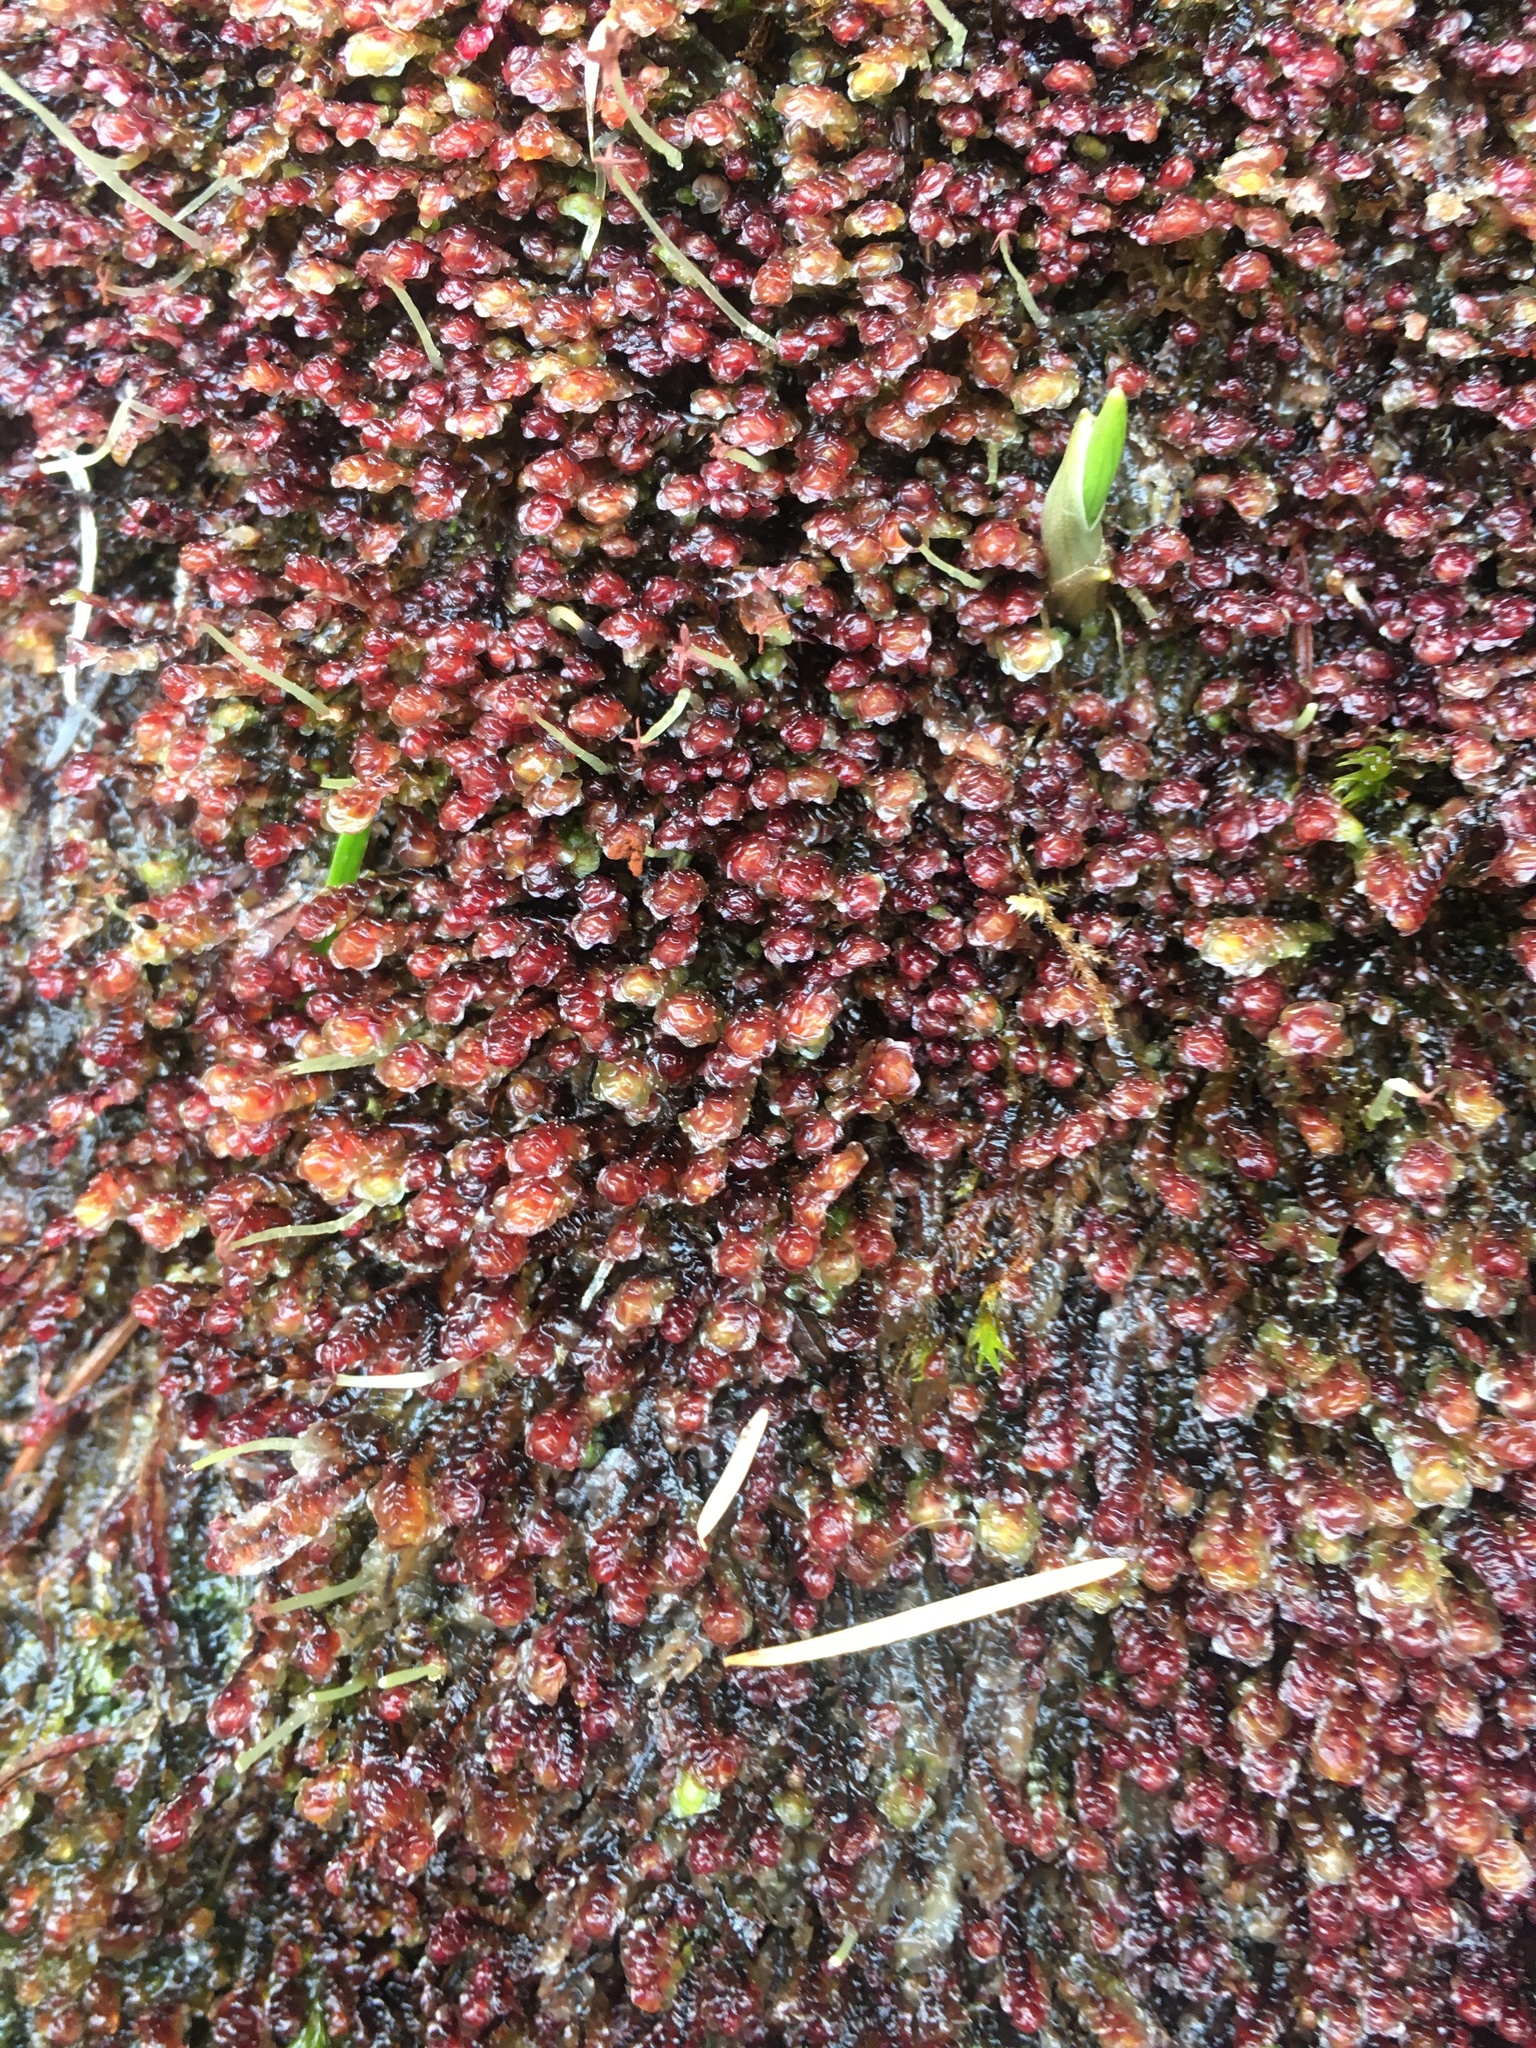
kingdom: Plantae
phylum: Marchantiophyta
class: Jungermanniopsida
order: Jungermanniales
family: Scapaniaceae
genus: Scapania
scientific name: Scapania americana
